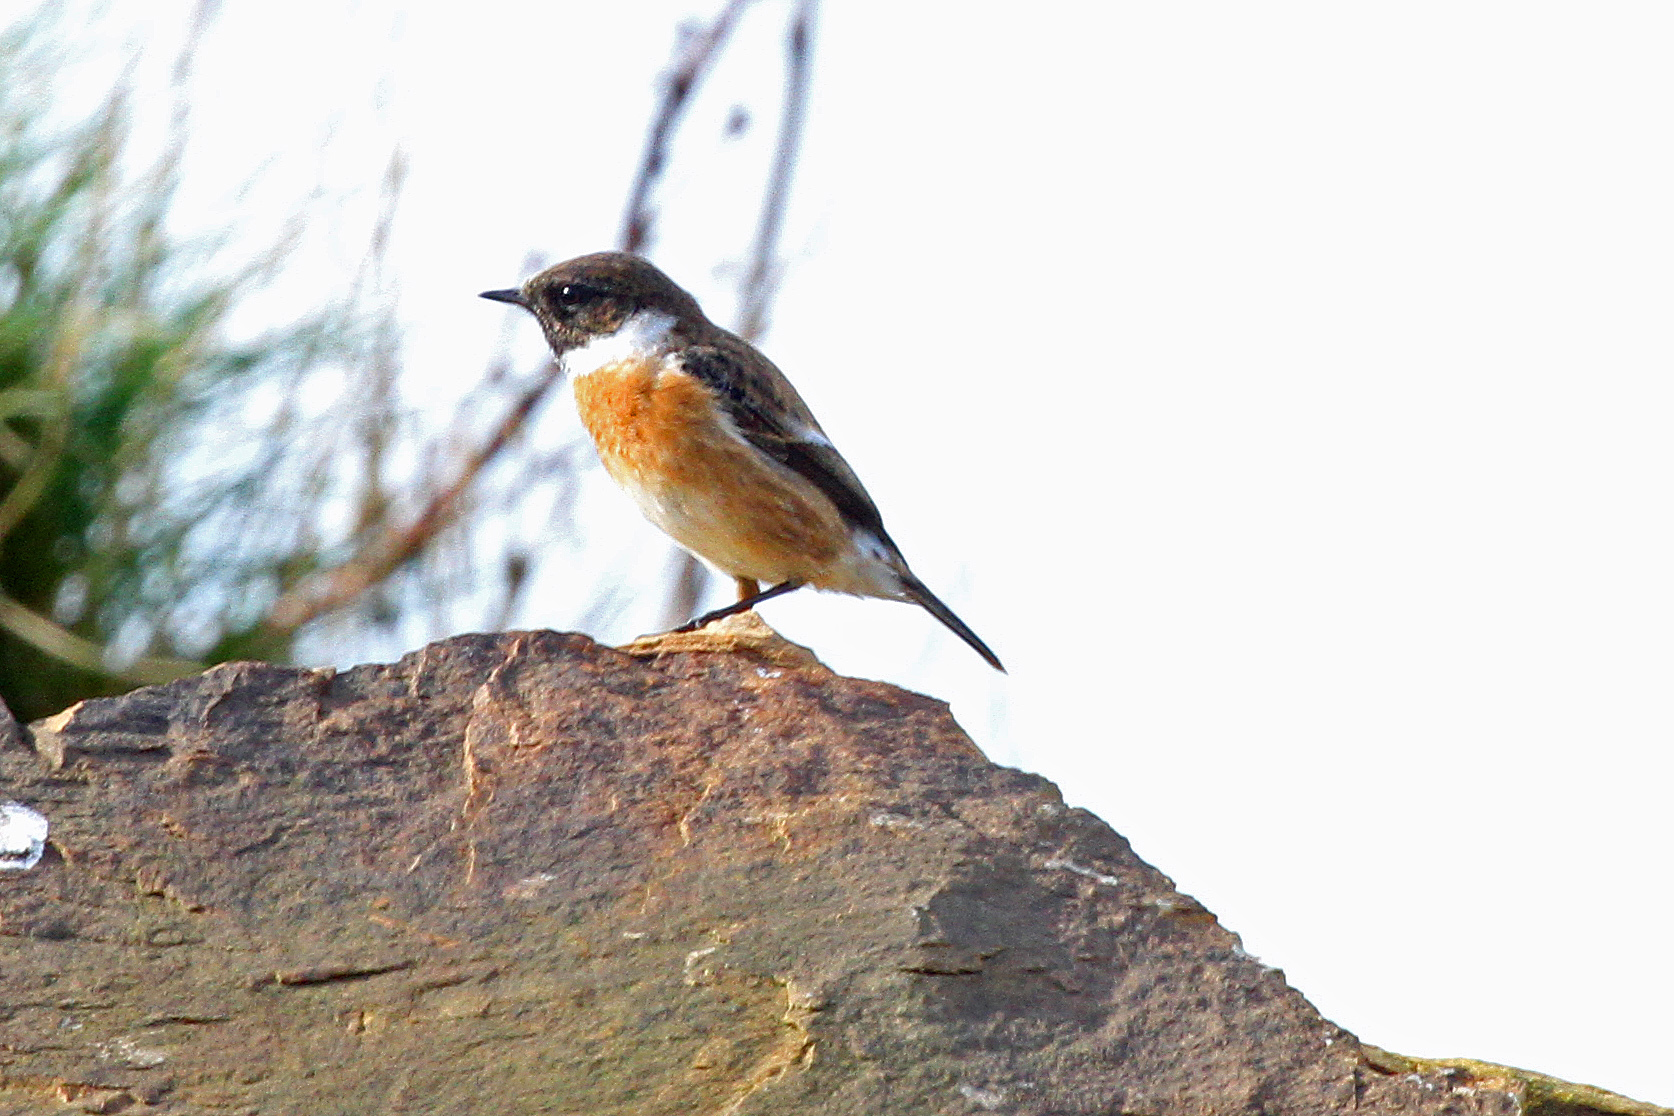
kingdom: Animalia
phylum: Chordata
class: Aves
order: Passeriformes
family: Muscicapidae
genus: Saxicola
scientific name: Saxicola rubicola
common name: European stonechat
